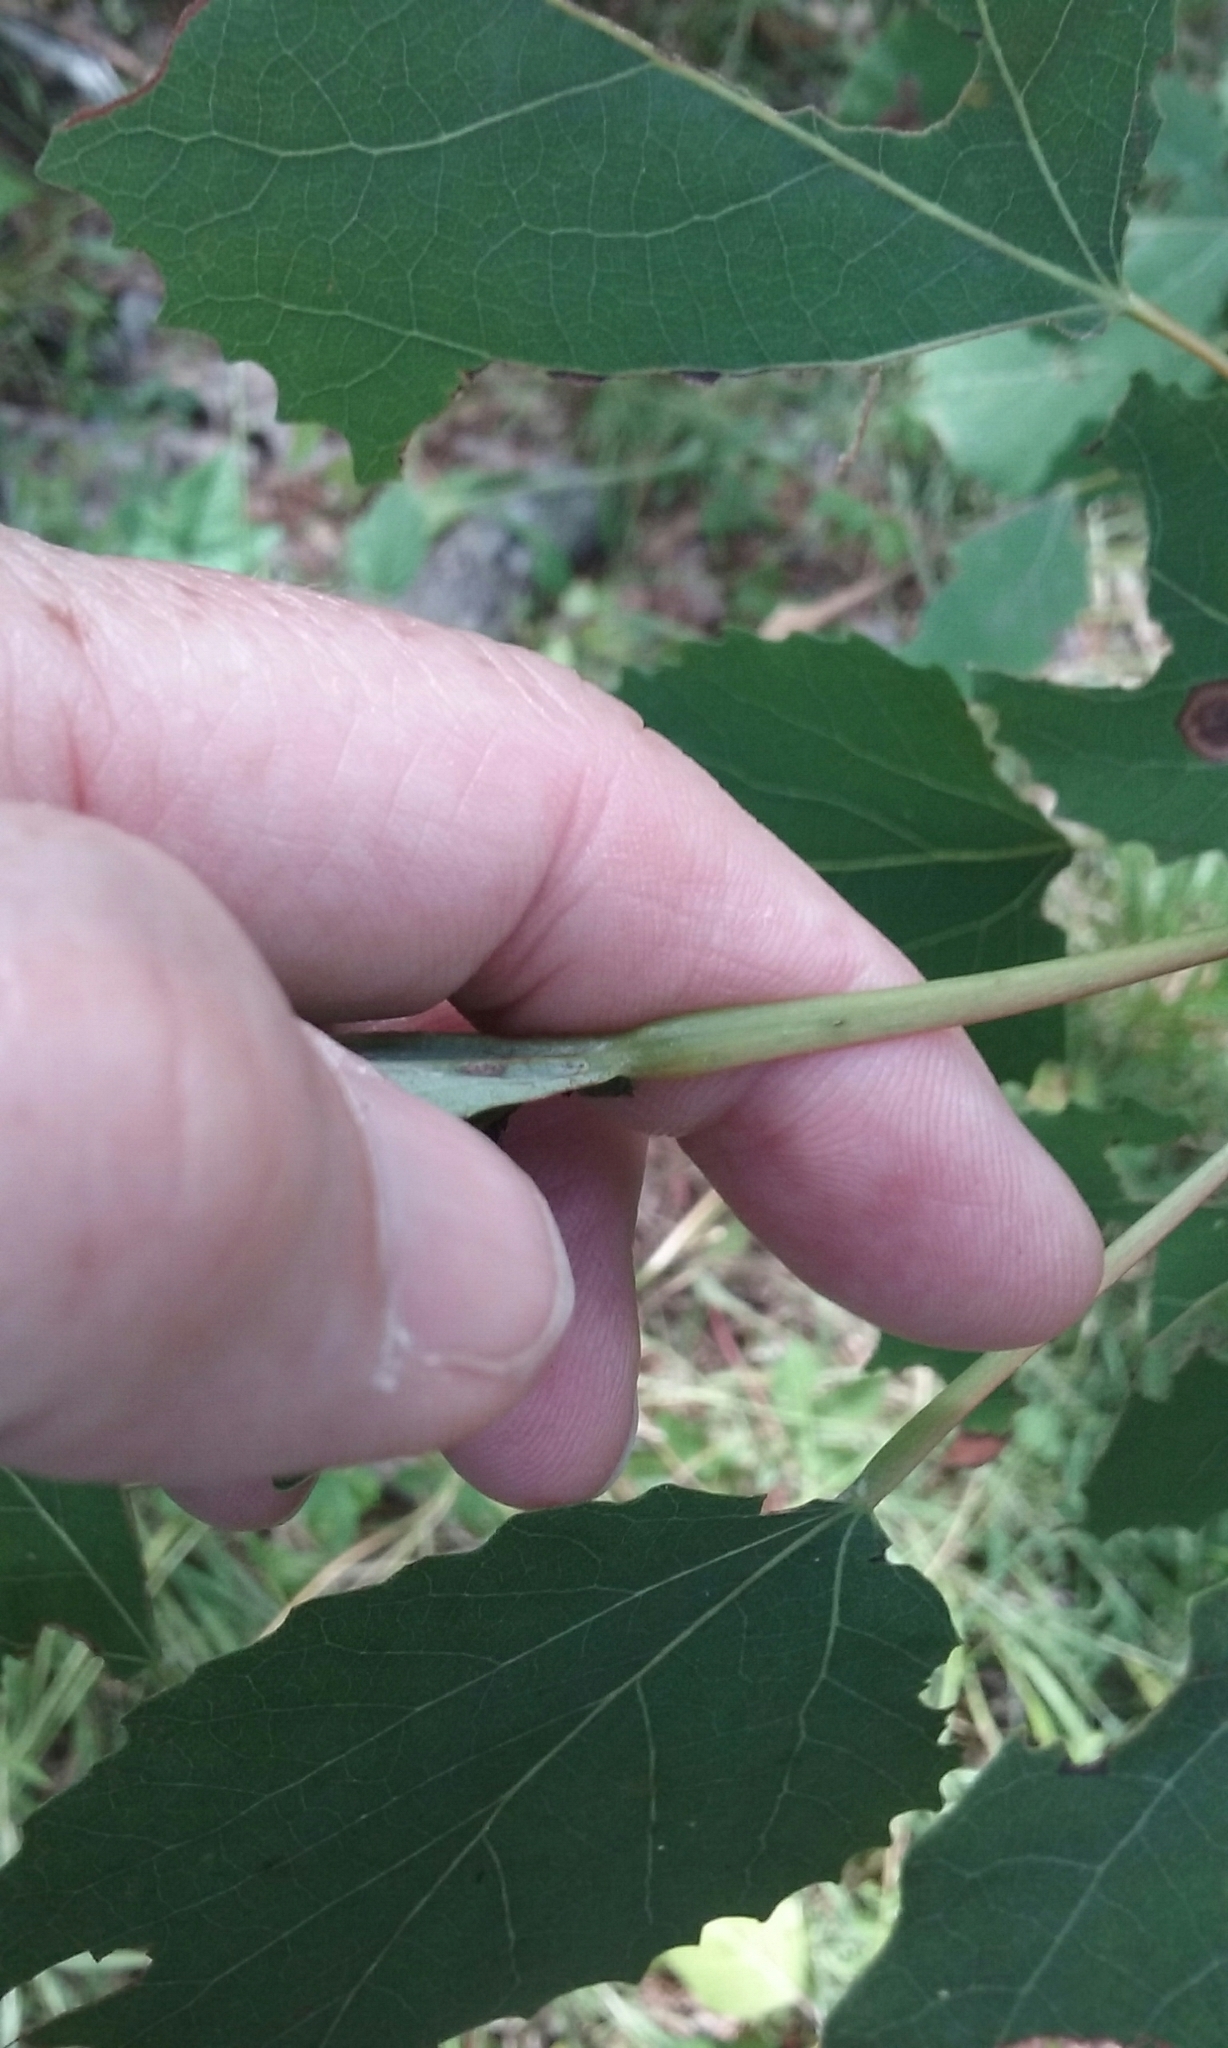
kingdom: Plantae
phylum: Tracheophyta
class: Magnoliopsida
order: Malpighiales
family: Salicaceae
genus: Populus
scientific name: Populus grandidentata
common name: Bigtooth aspen
